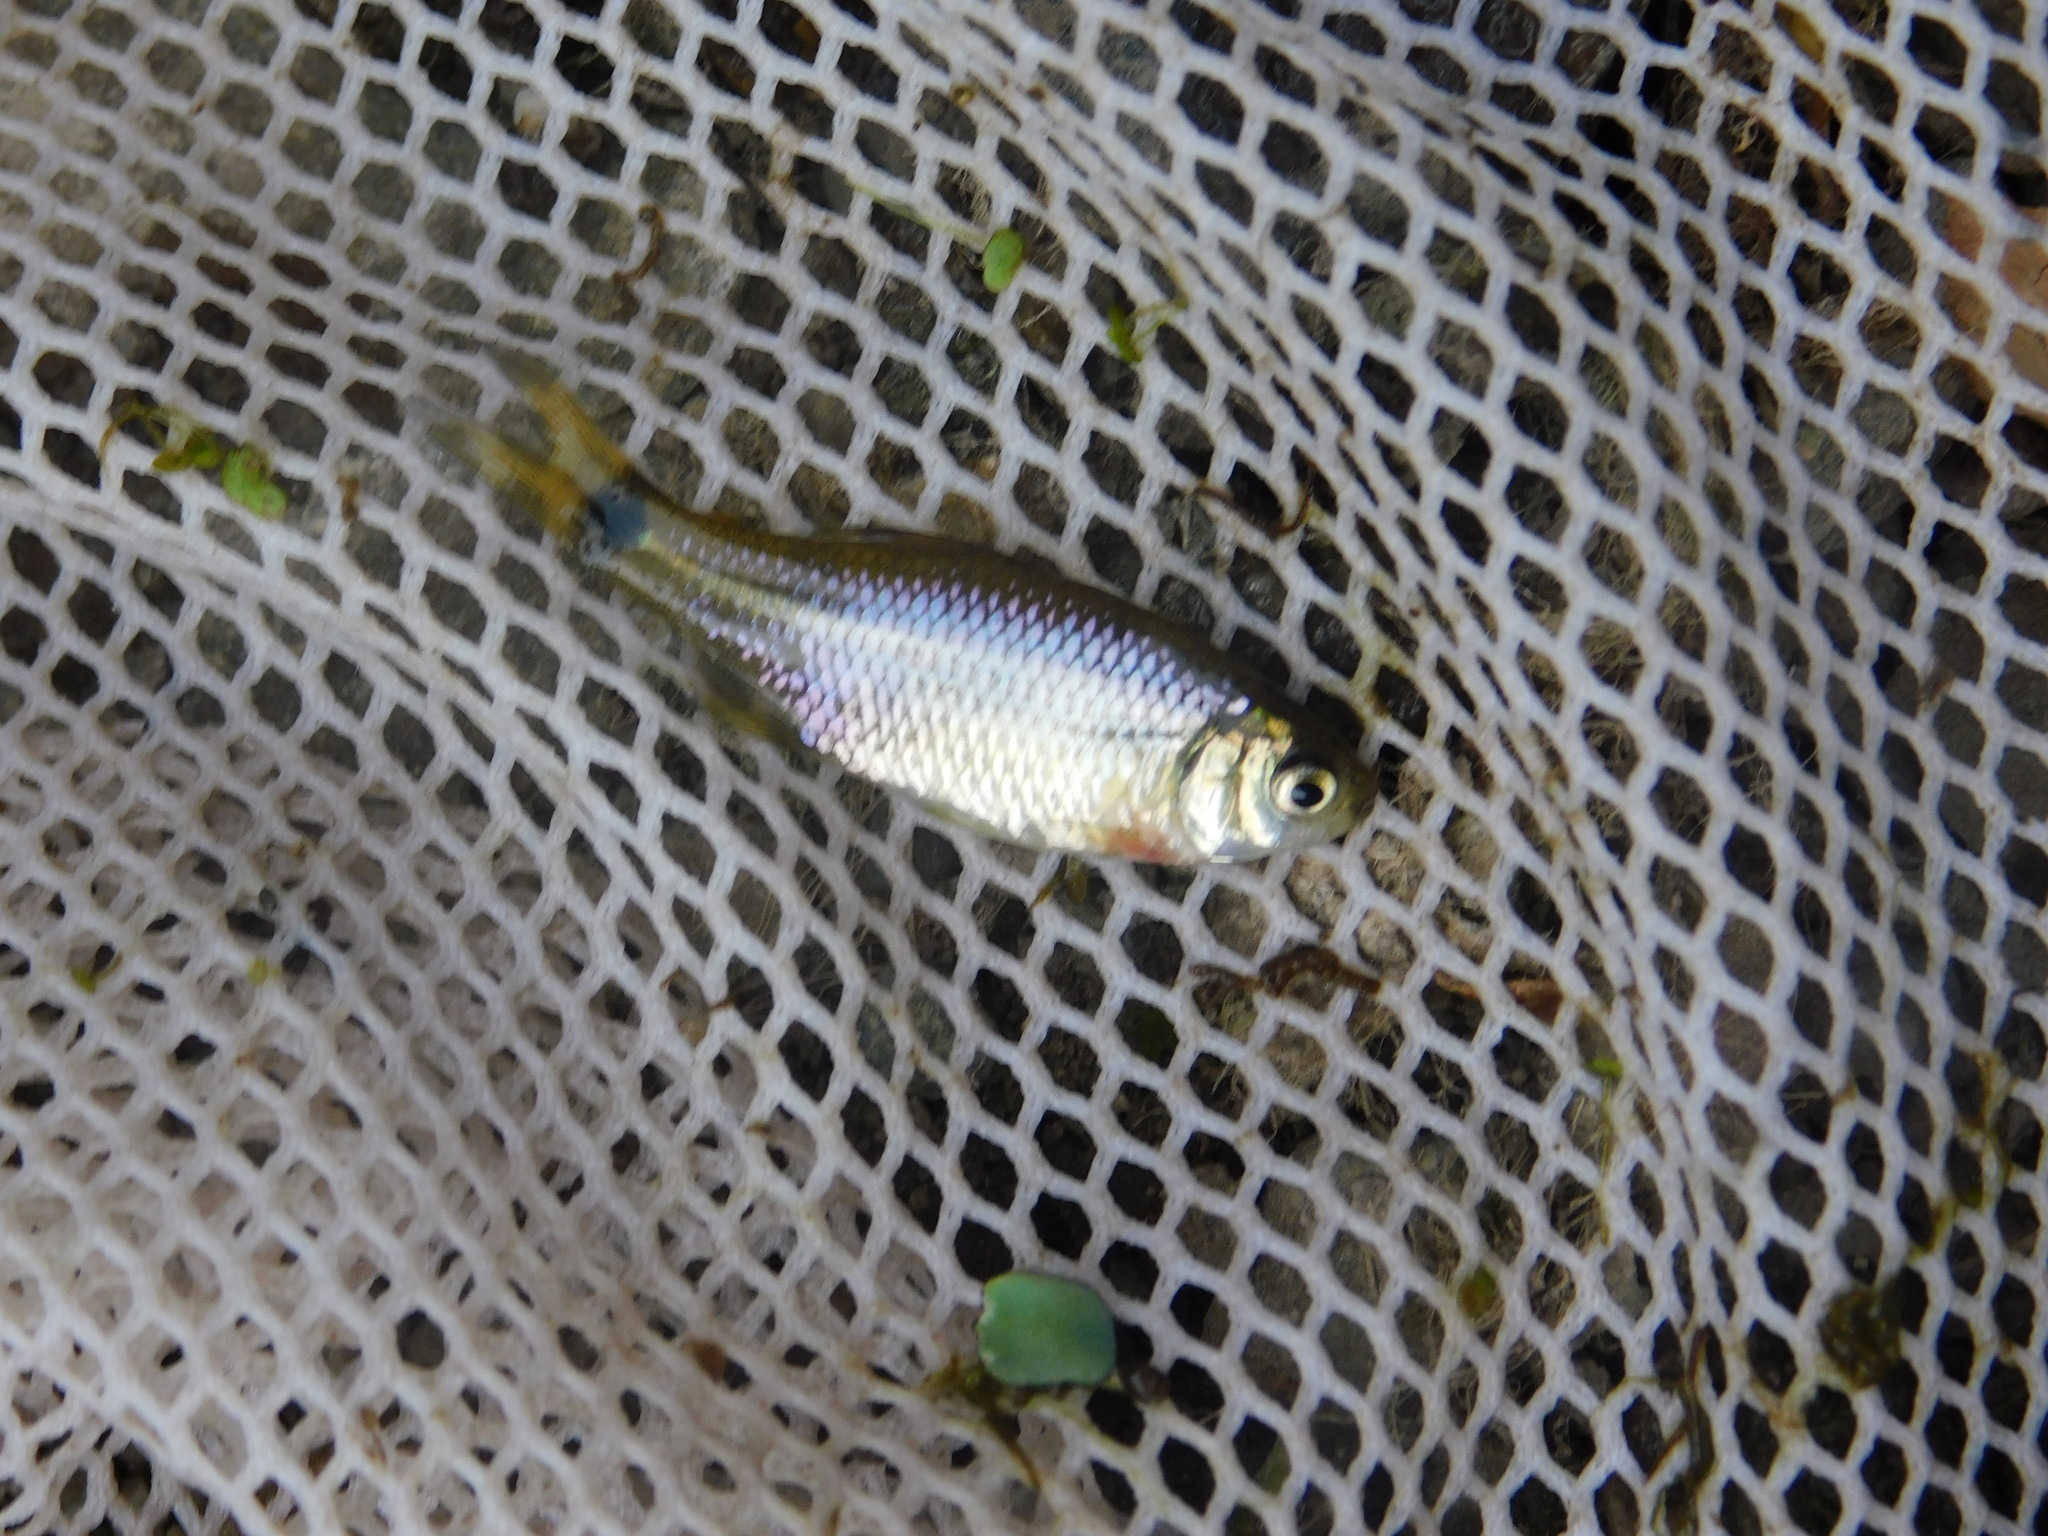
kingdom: Animalia
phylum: Chordata
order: Characiformes
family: Characidae
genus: Cheirodon
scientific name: Cheirodon interruptus
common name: Uruguay tetra
